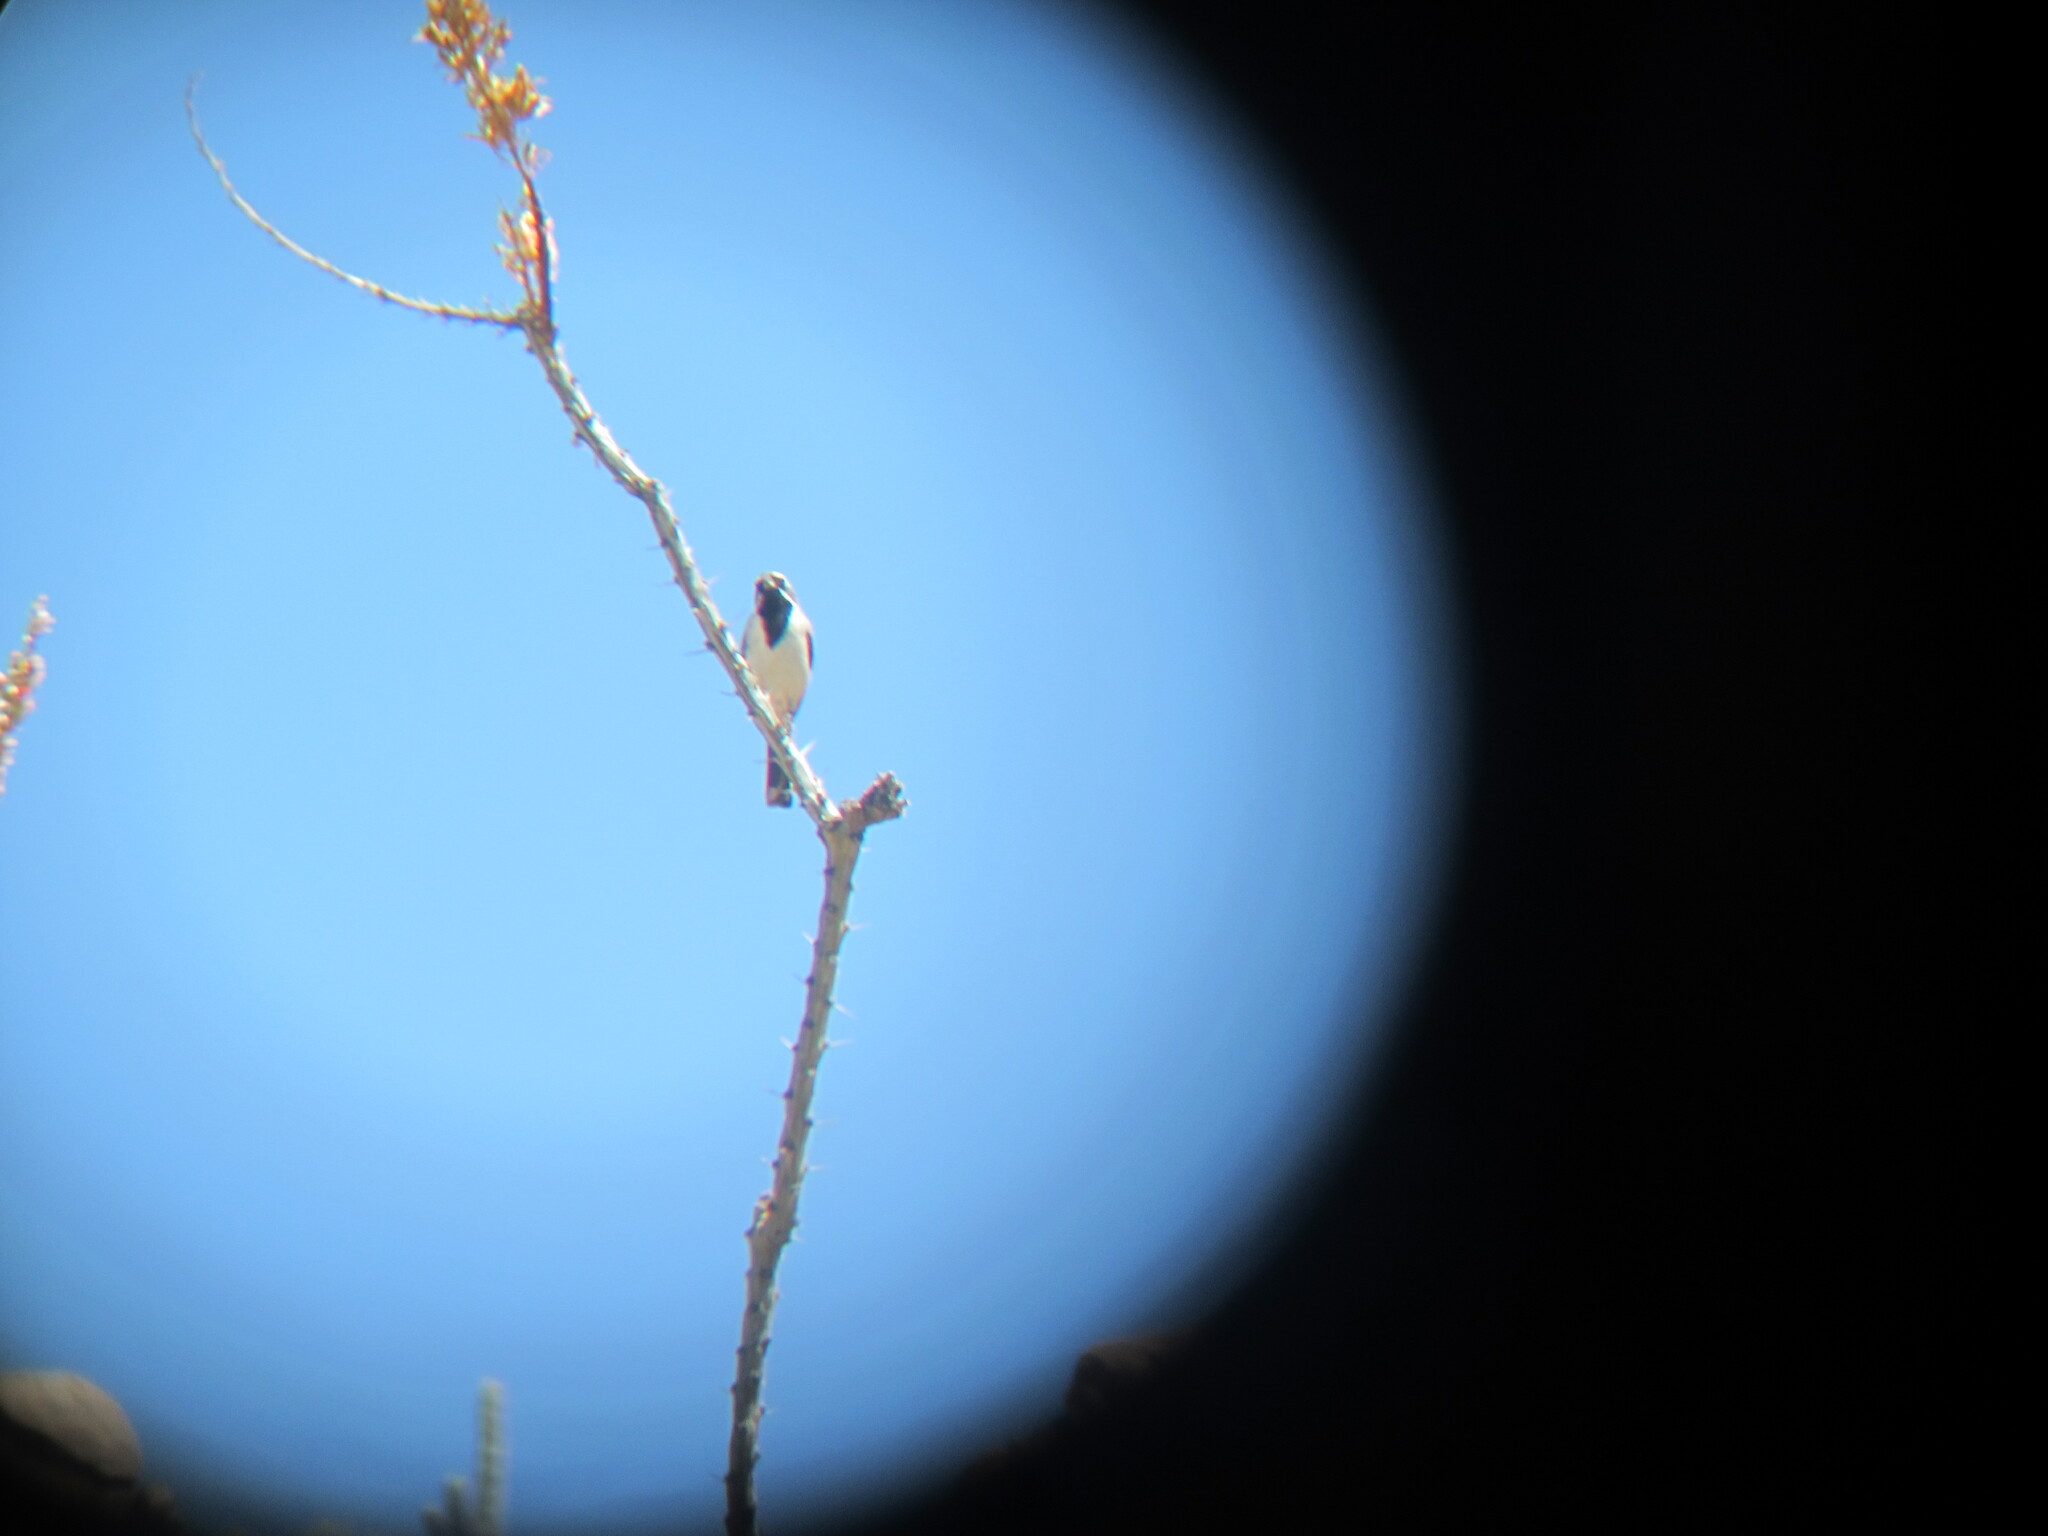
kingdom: Animalia
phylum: Chordata
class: Aves
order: Passeriformes
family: Passerellidae
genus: Amphispiza
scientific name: Amphispiza bilineata
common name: Black-throated sparrow
